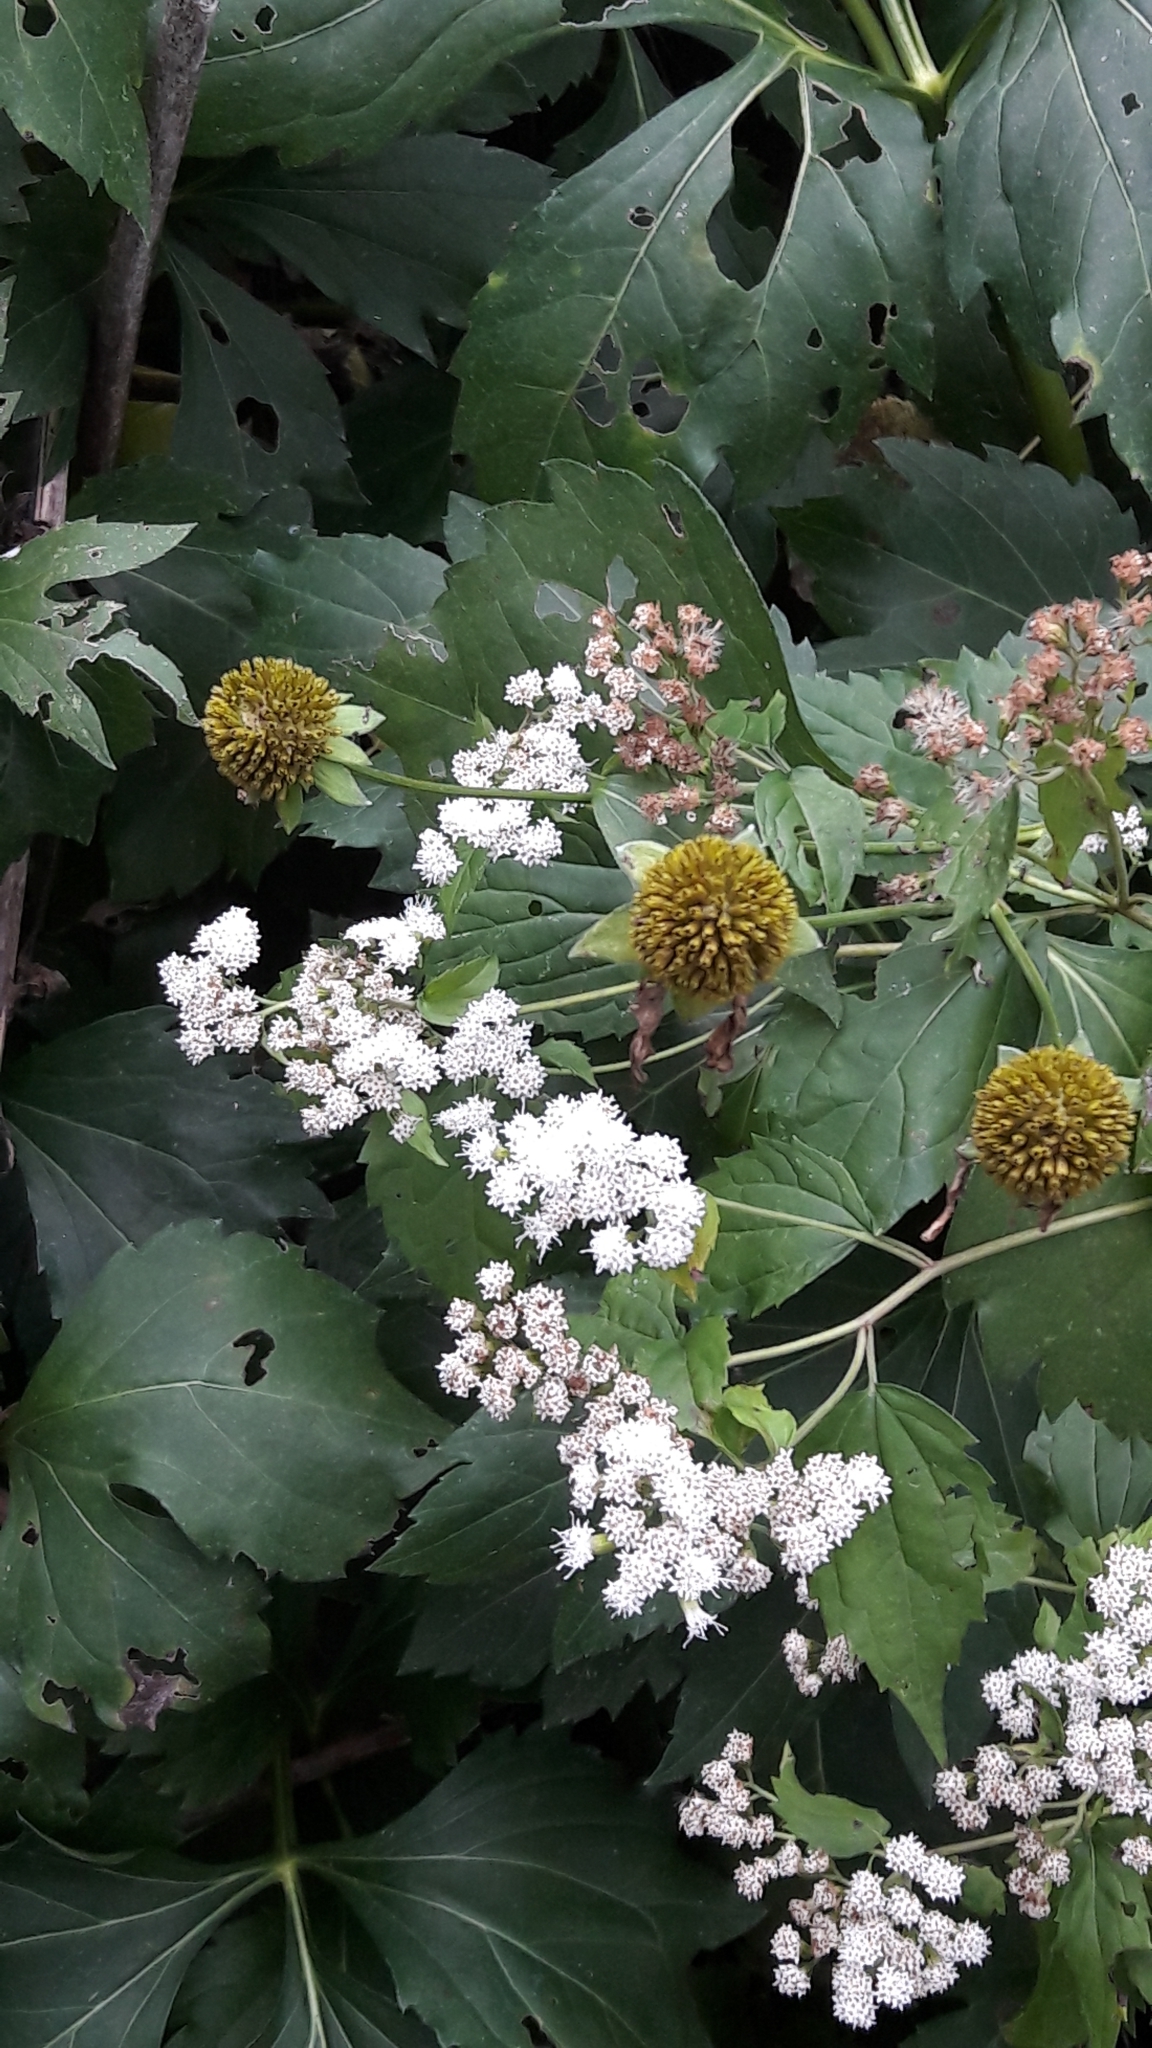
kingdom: Plantae
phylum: Tracheophyta
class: Magnoliopsida
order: Asterales
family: Asteraceae
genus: Rudbeckia
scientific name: Rudbeckia laciniata
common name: Coneflower
